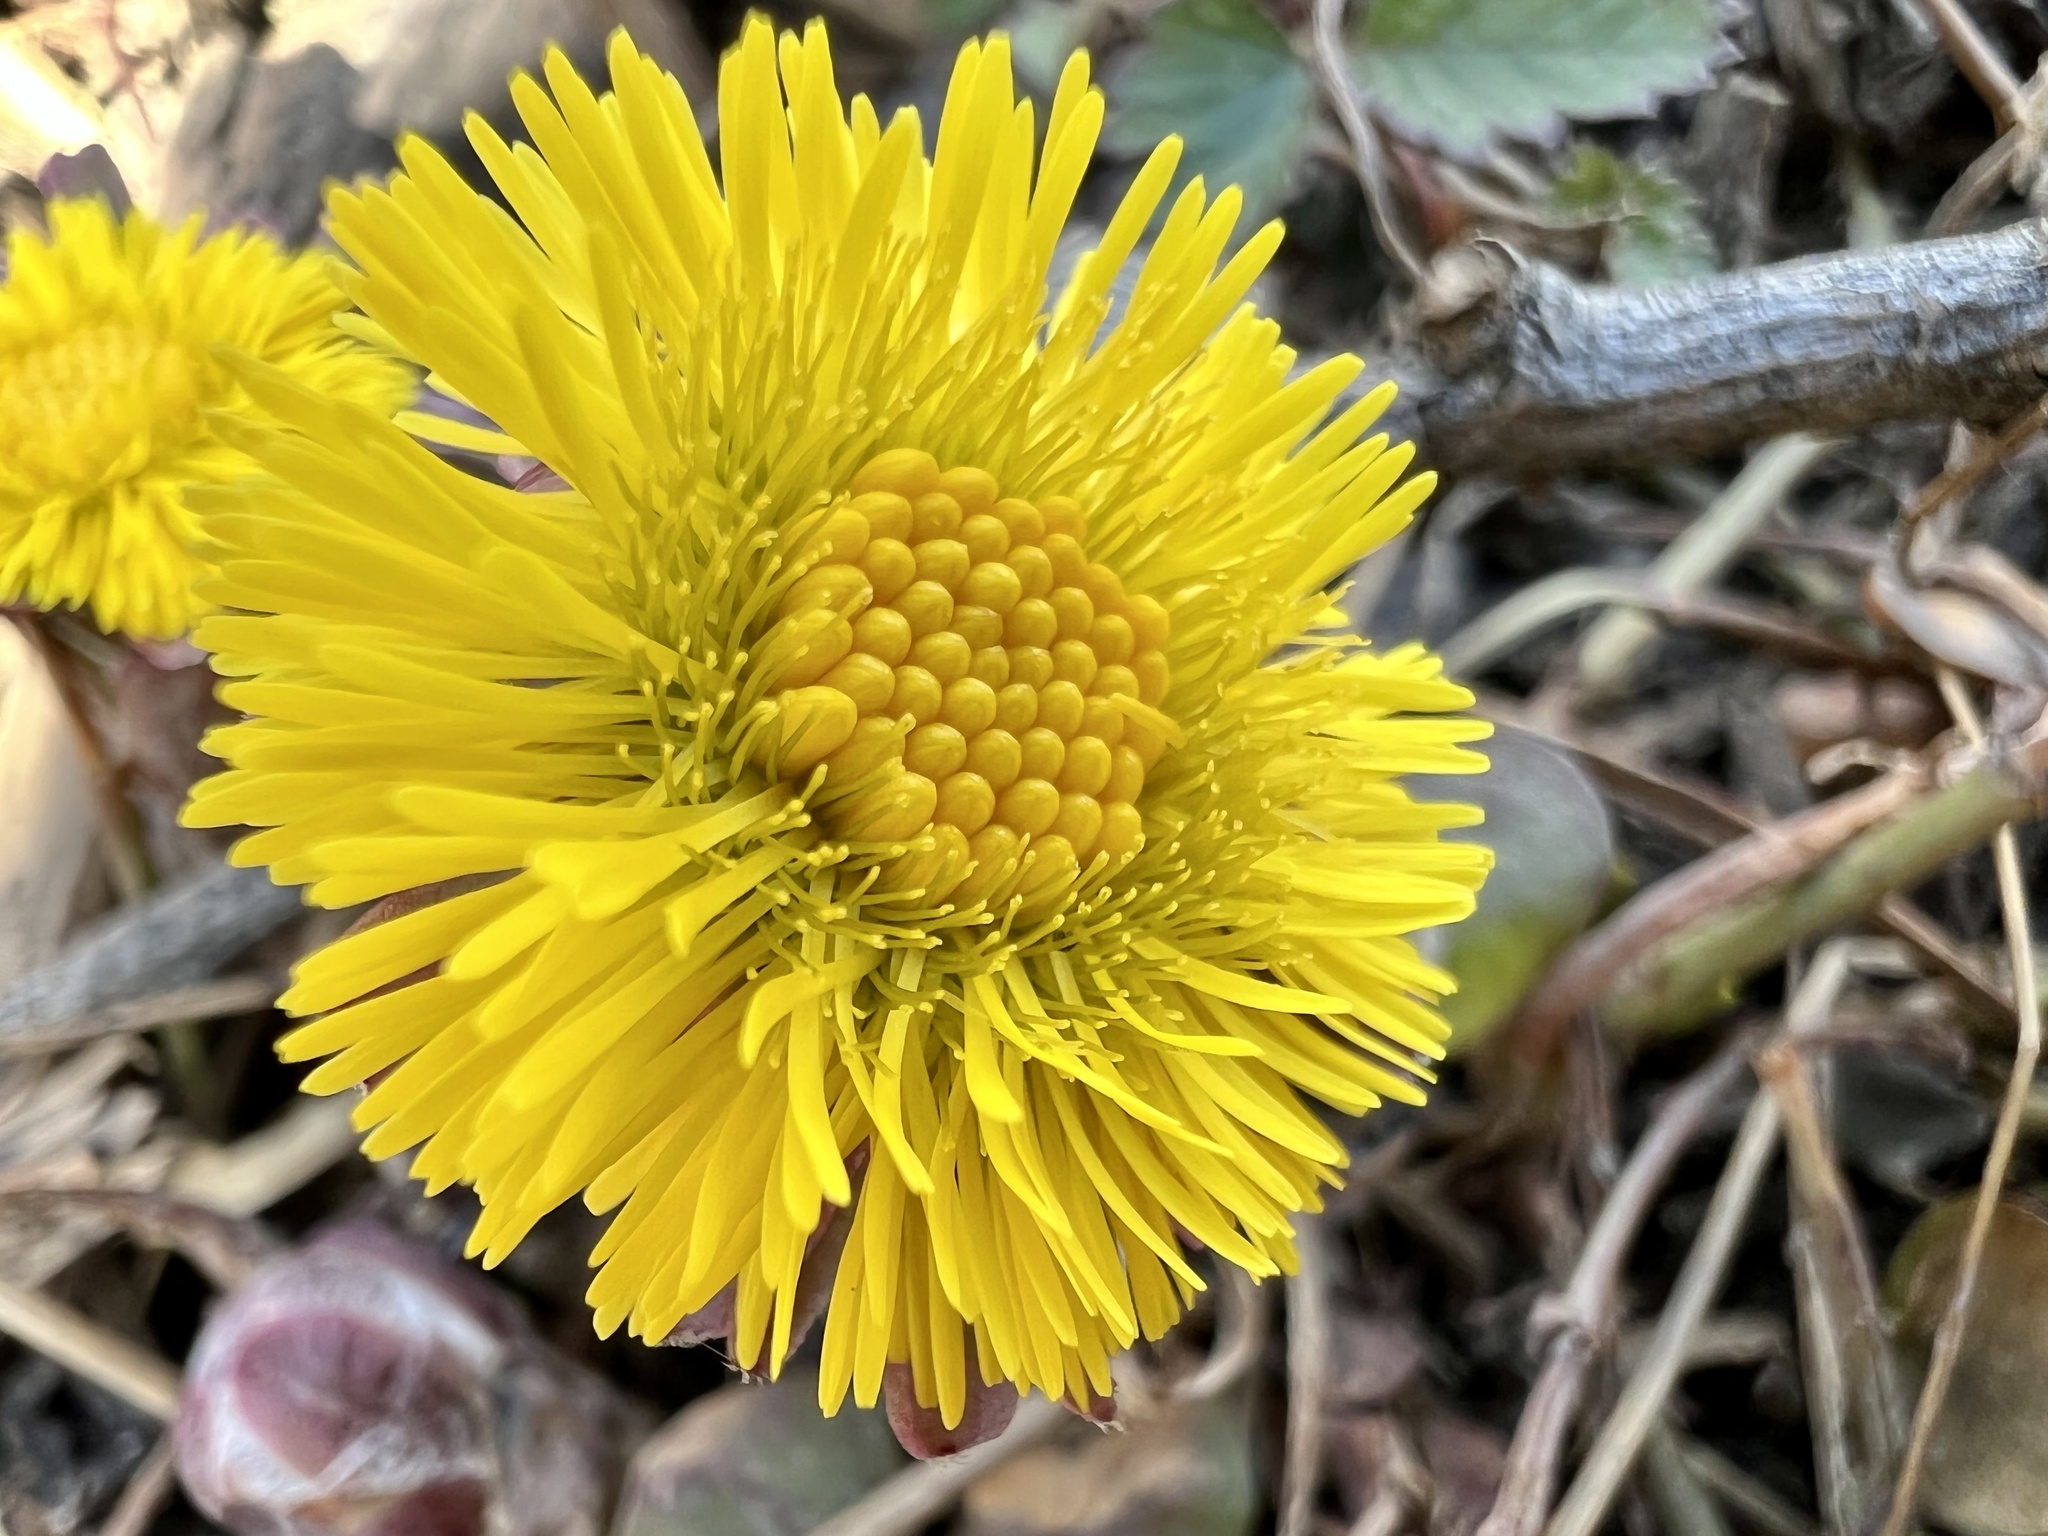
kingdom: Plantae
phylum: Tracheophyta
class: Magnoliopsida
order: Asterales
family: Asteraceae
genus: Tussilago
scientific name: Tussilago farfara
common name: Coltsfoot
